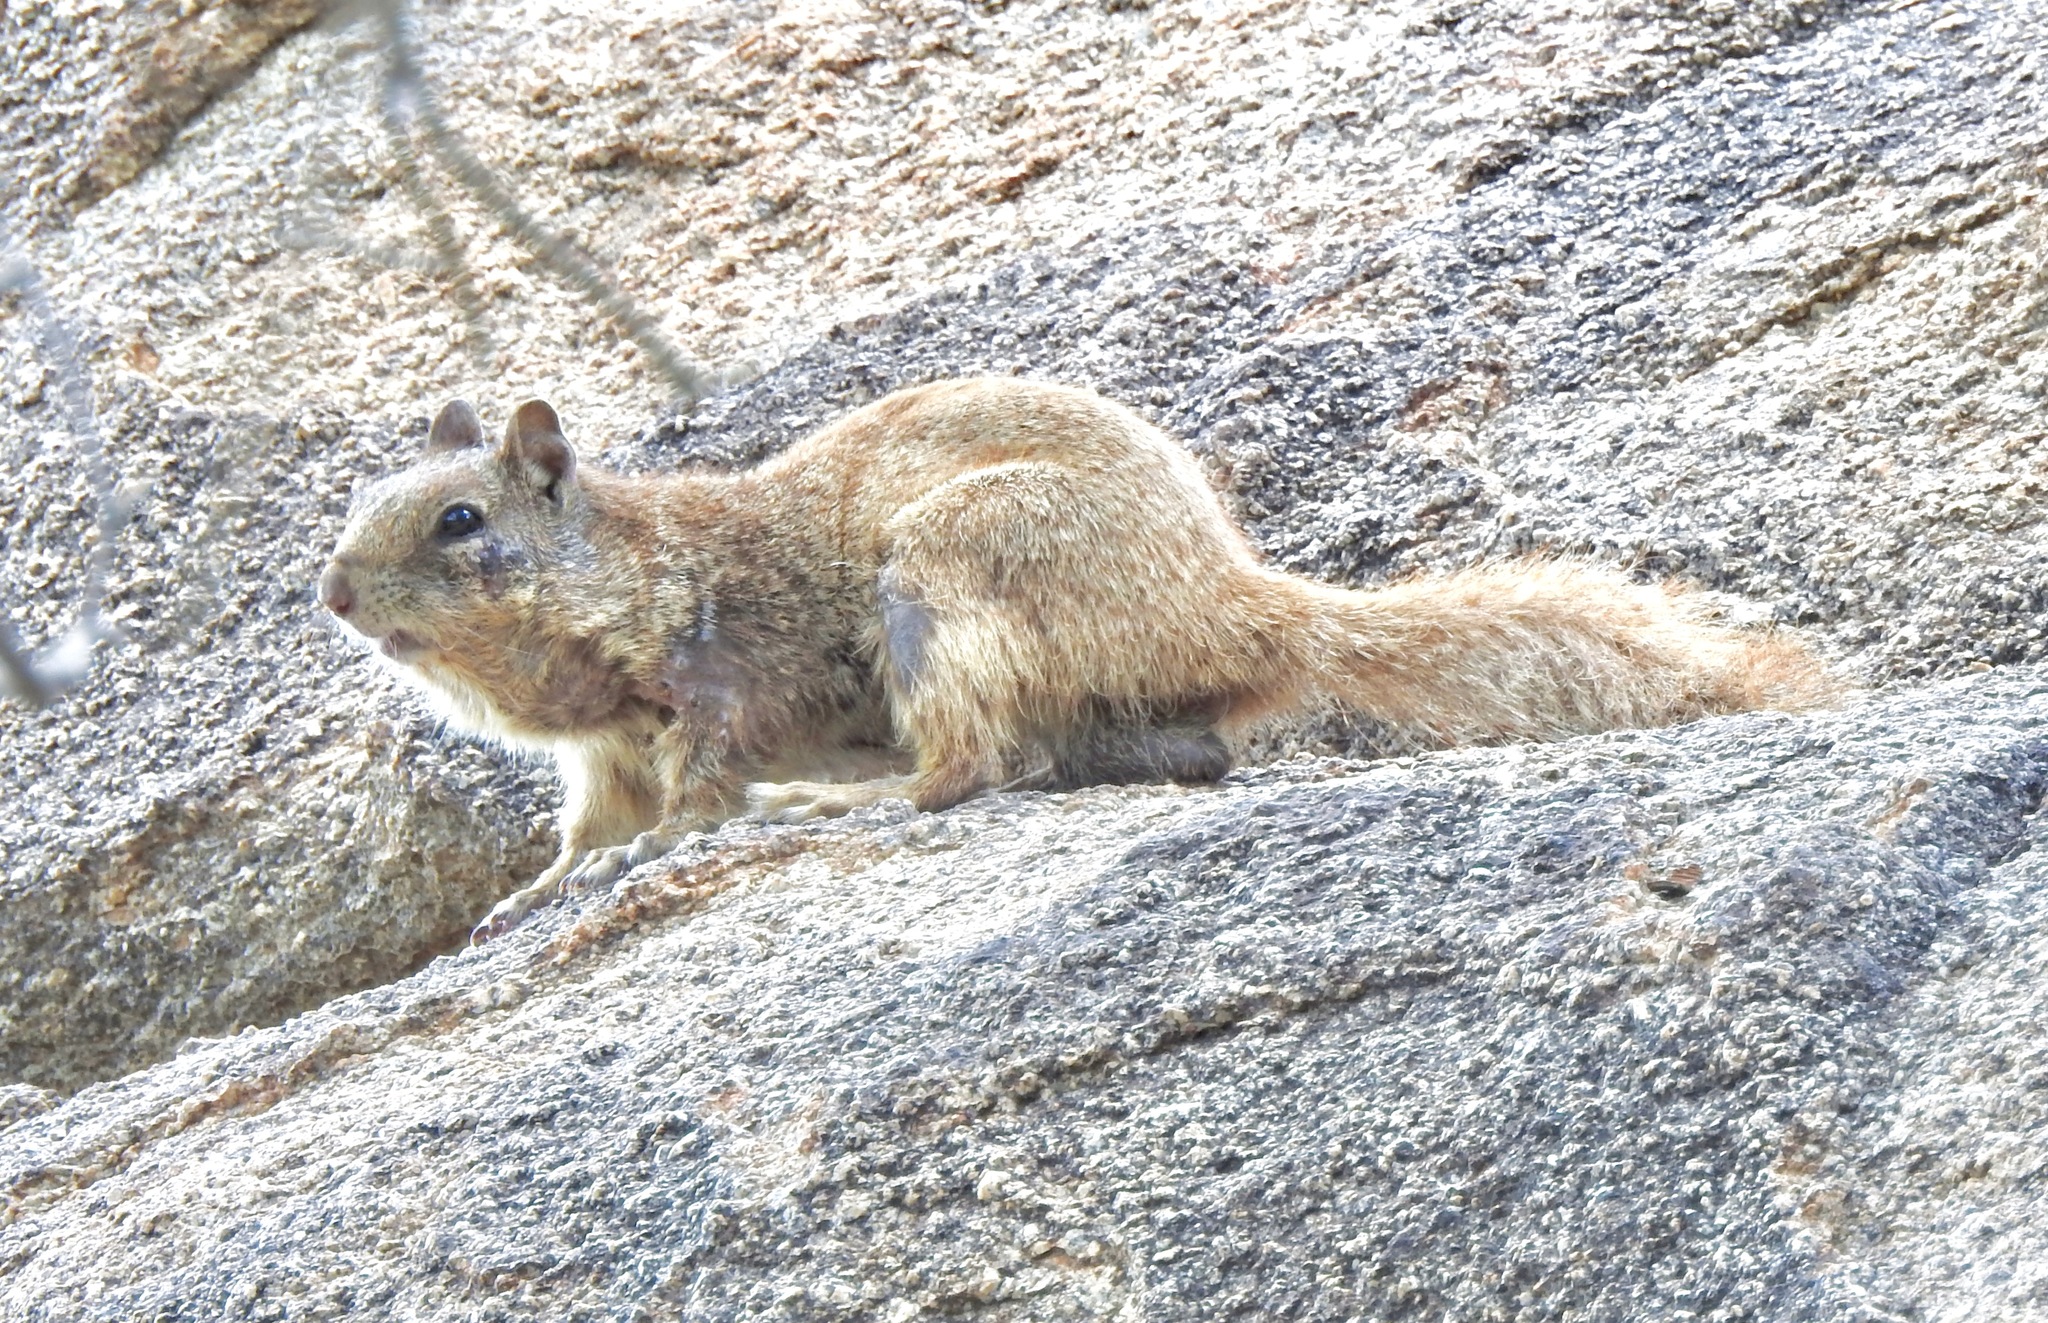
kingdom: Animalia
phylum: Chordata
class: Mammalia
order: Rodentia
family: Sciuridae
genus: Otospermophilus
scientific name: Otospermophilus variegatus
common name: Rock squirrel
